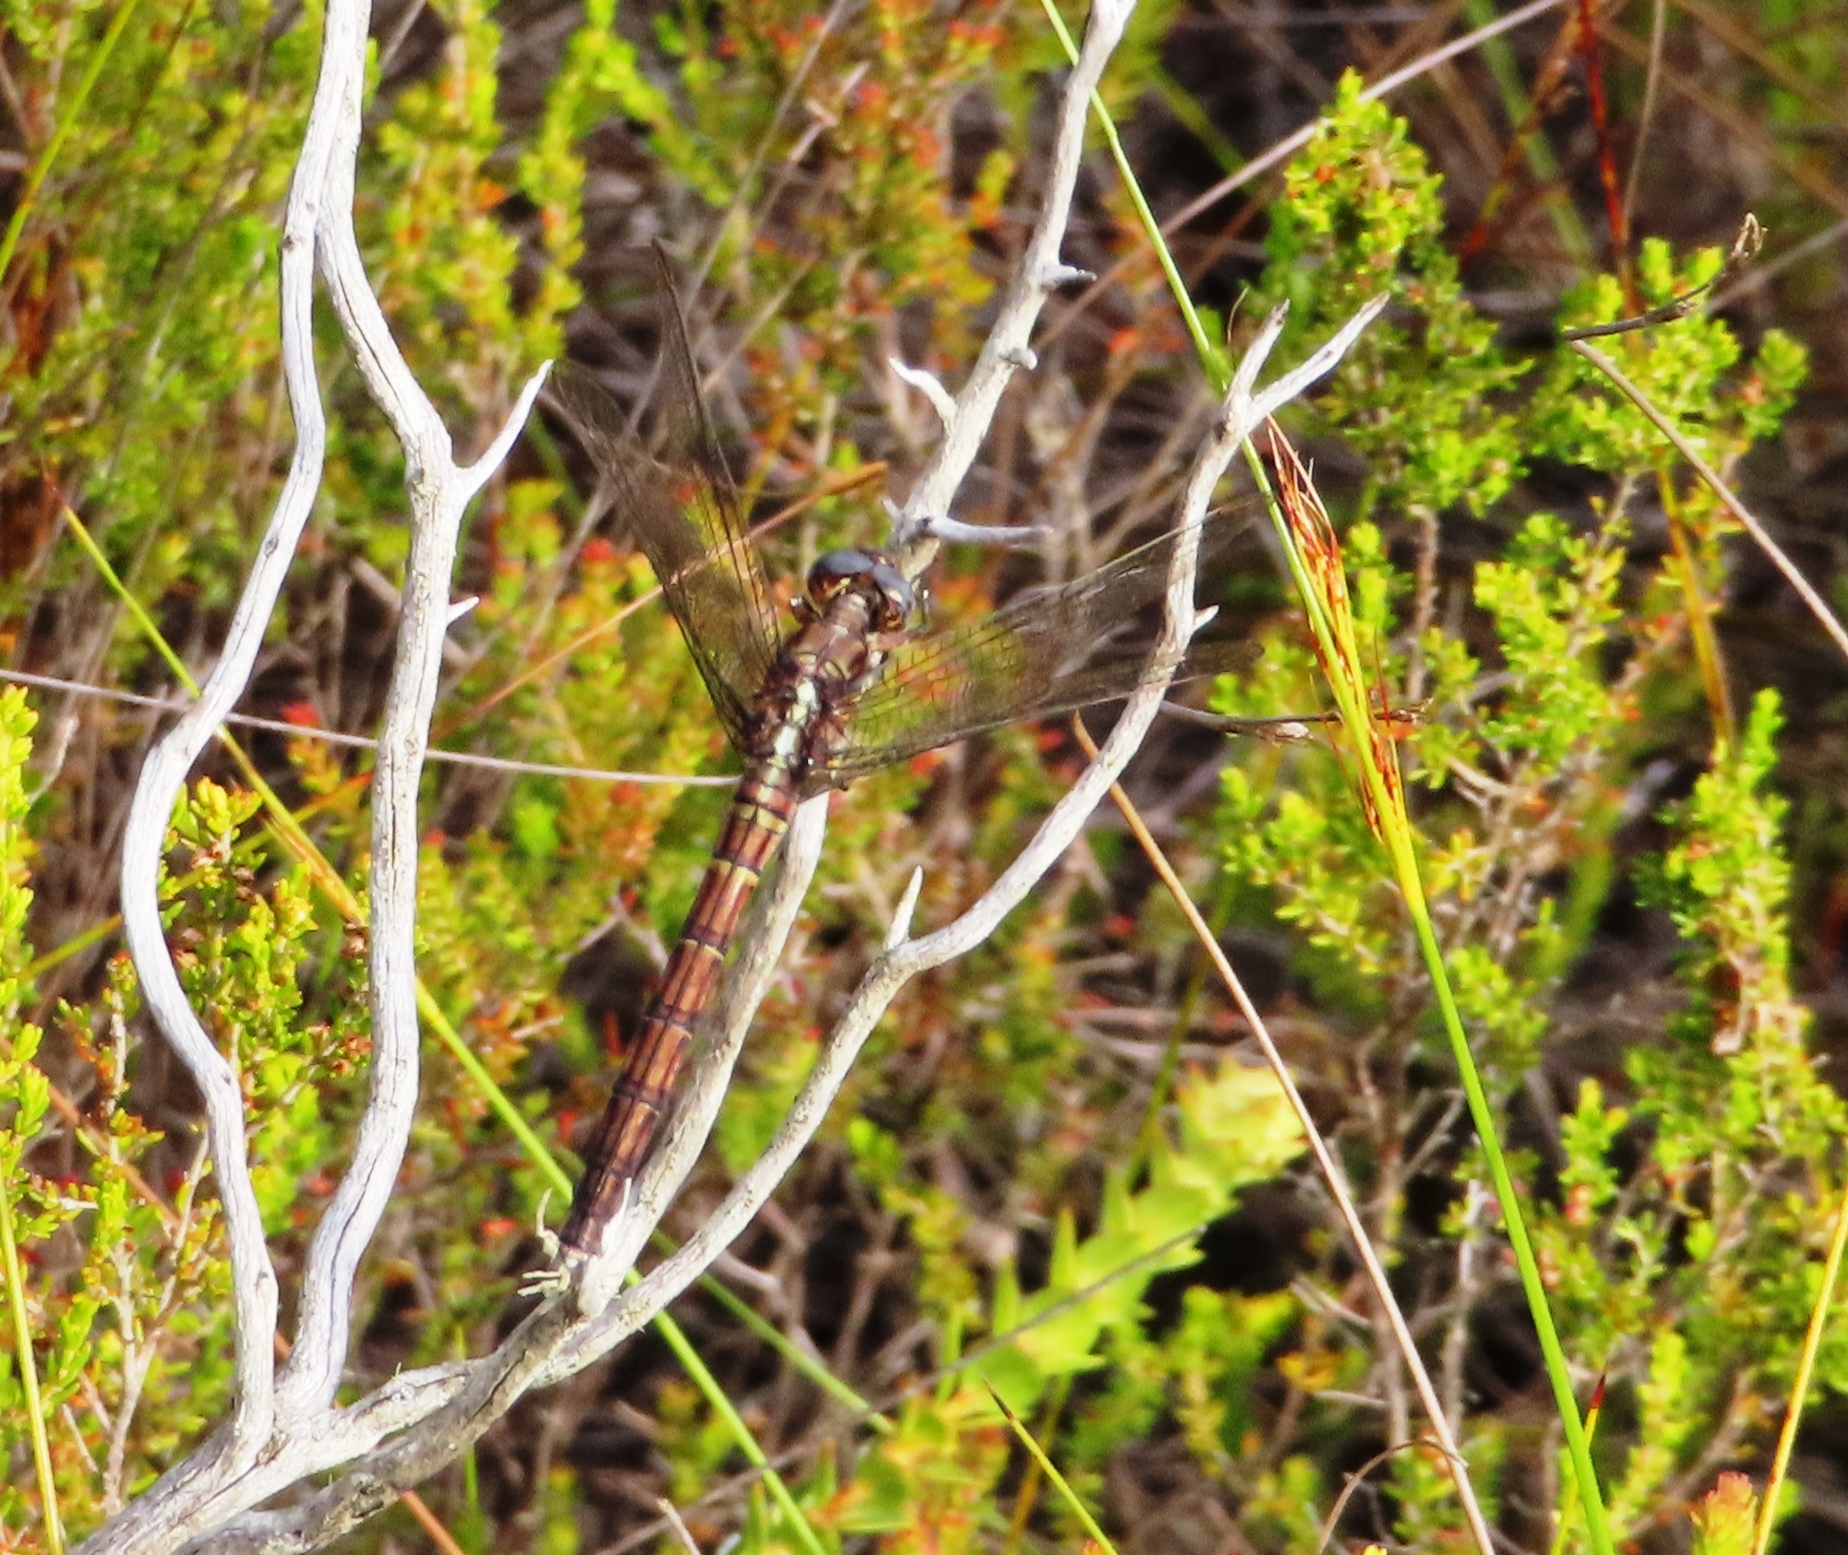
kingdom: Animalia
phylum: Arthropoda
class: Insecta
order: Odonata
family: Libellulidae
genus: Orthetrum
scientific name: Orthetrum julia
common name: Julia skimmer
